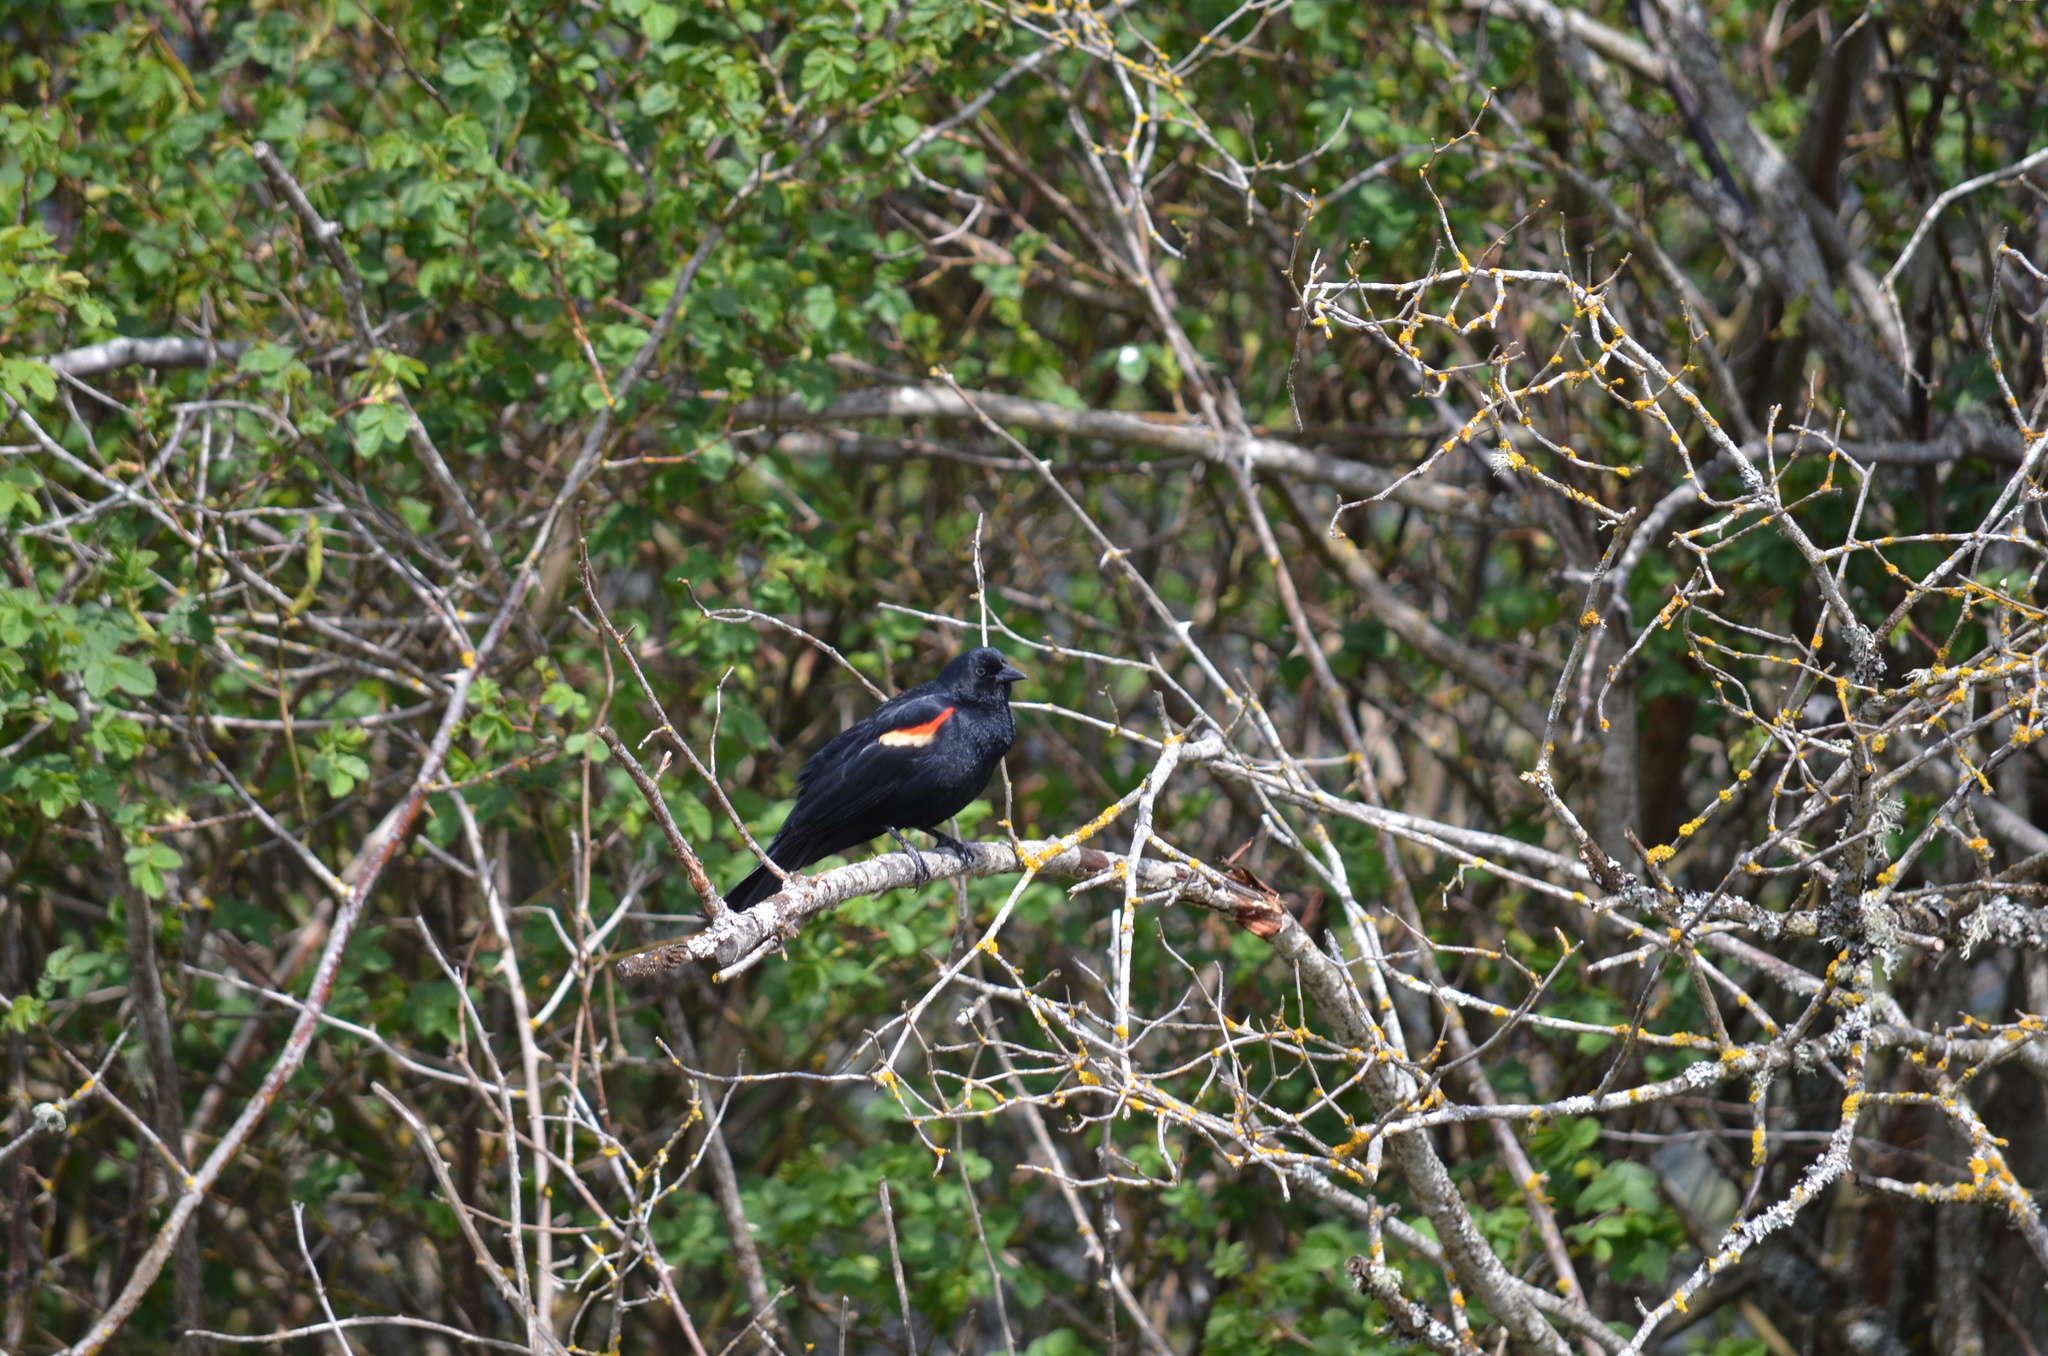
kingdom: Animalia
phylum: Chordata
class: Aves
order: Passeriformes
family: Icteridae
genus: Agelaius
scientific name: Agelaius phoeniceus
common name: Red-winged blackbird
